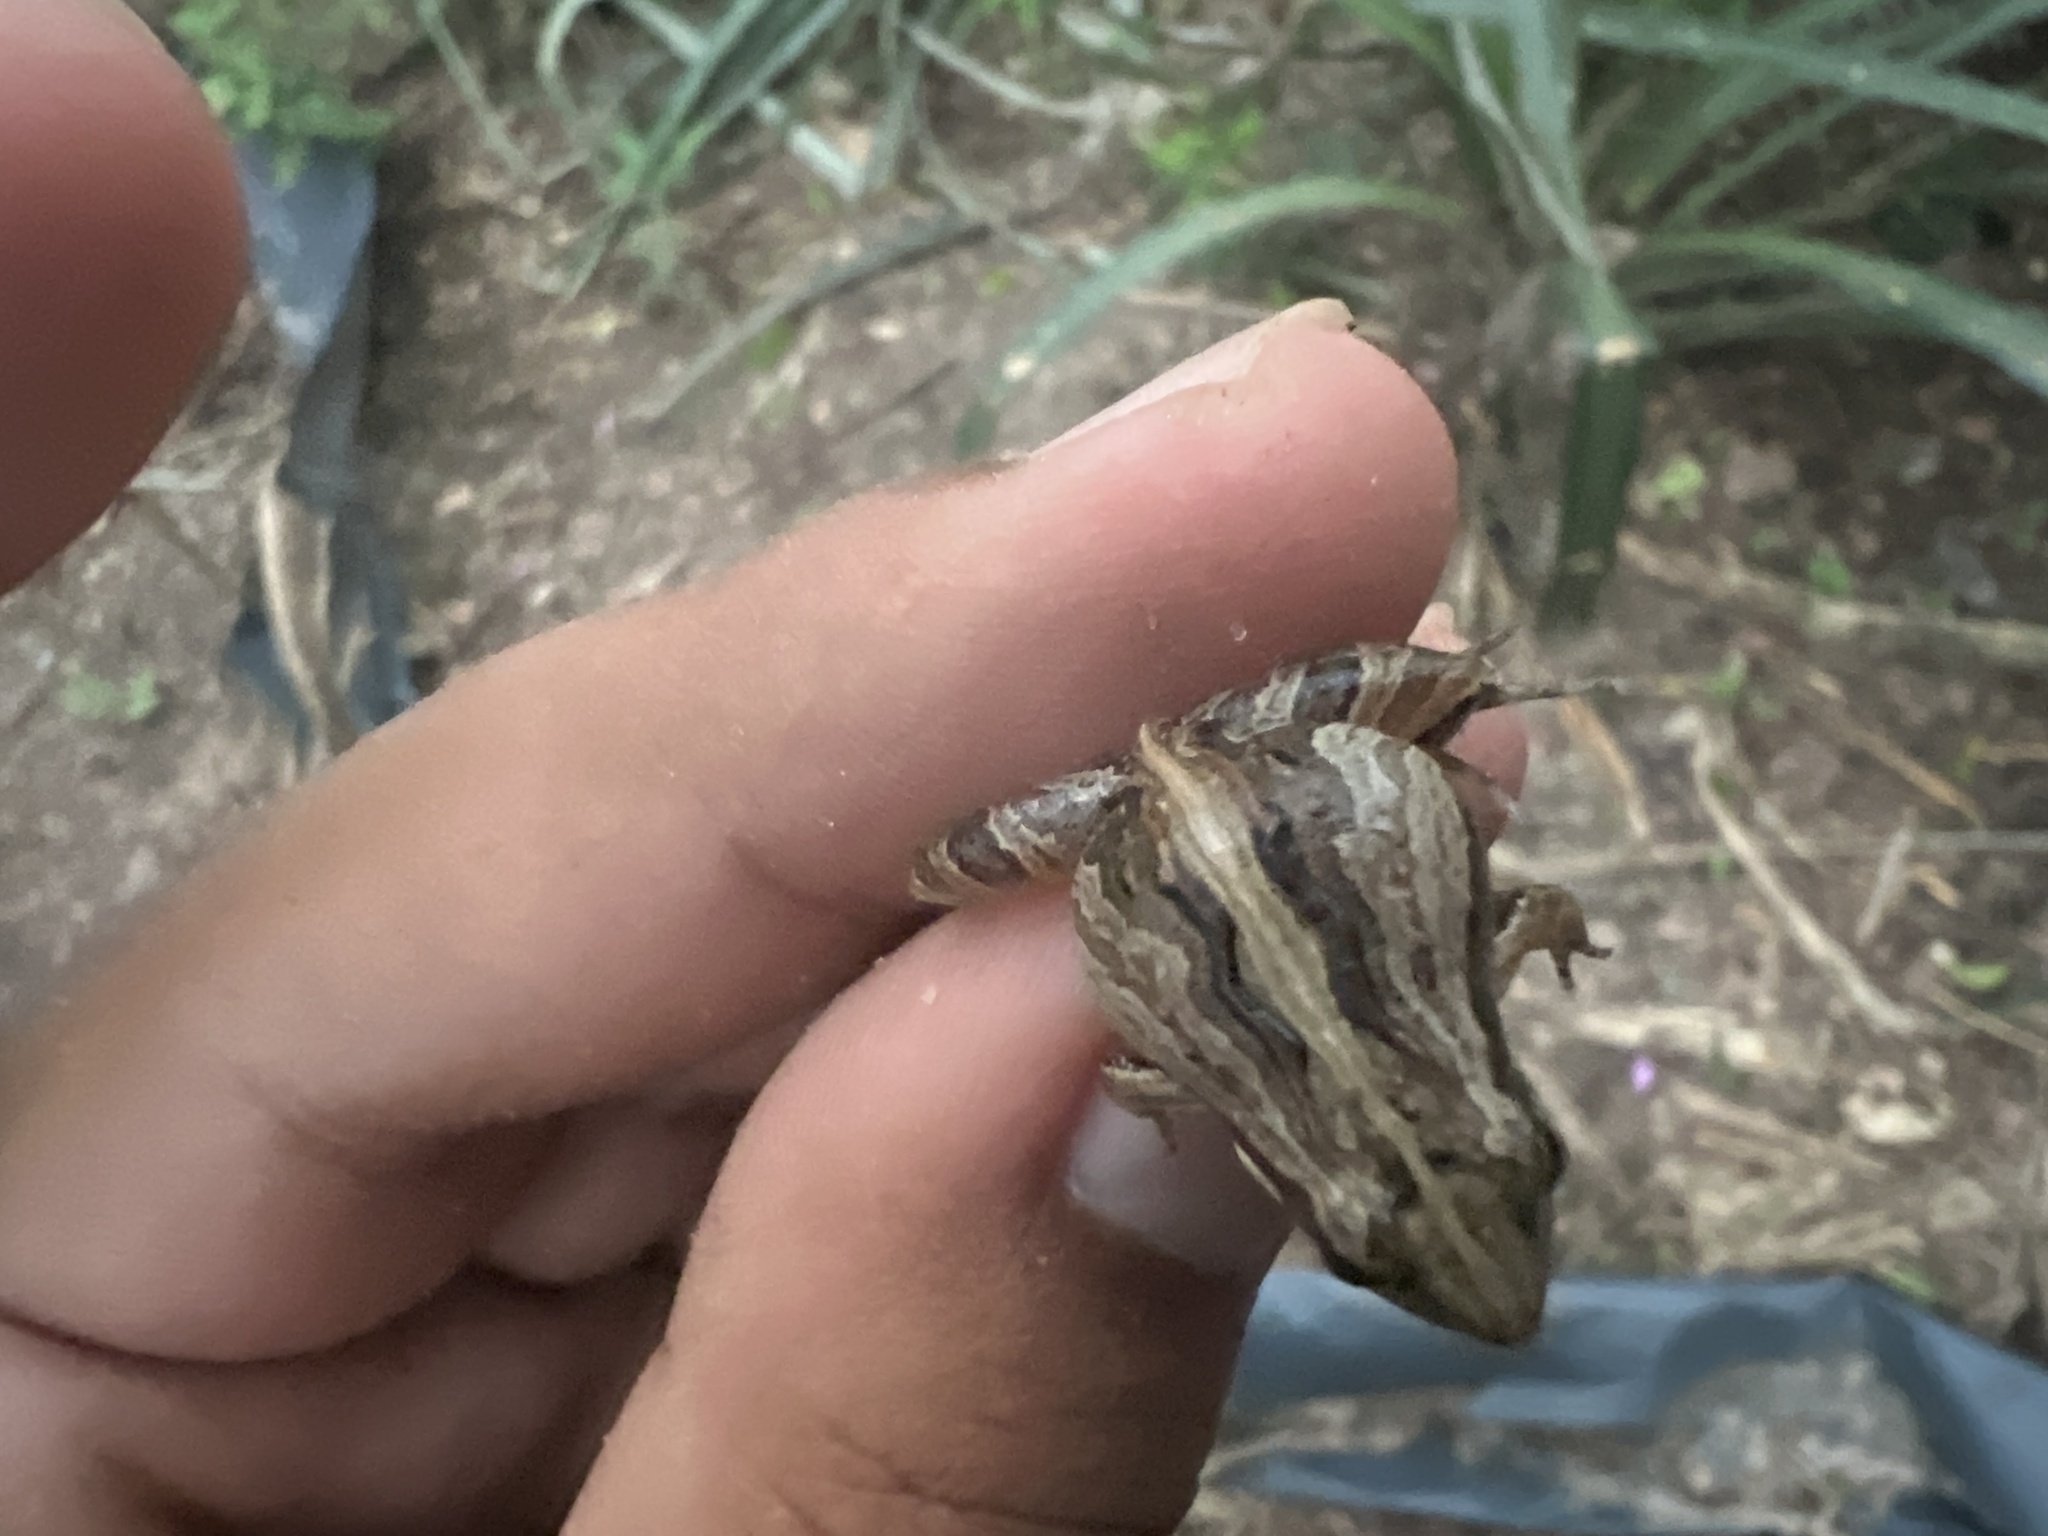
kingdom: Animalia
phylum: Chordata
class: Amphibia
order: Anura
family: Leptodactylidae
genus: Physalaemus
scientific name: Physalaemus cuvieri
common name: Barker frog
